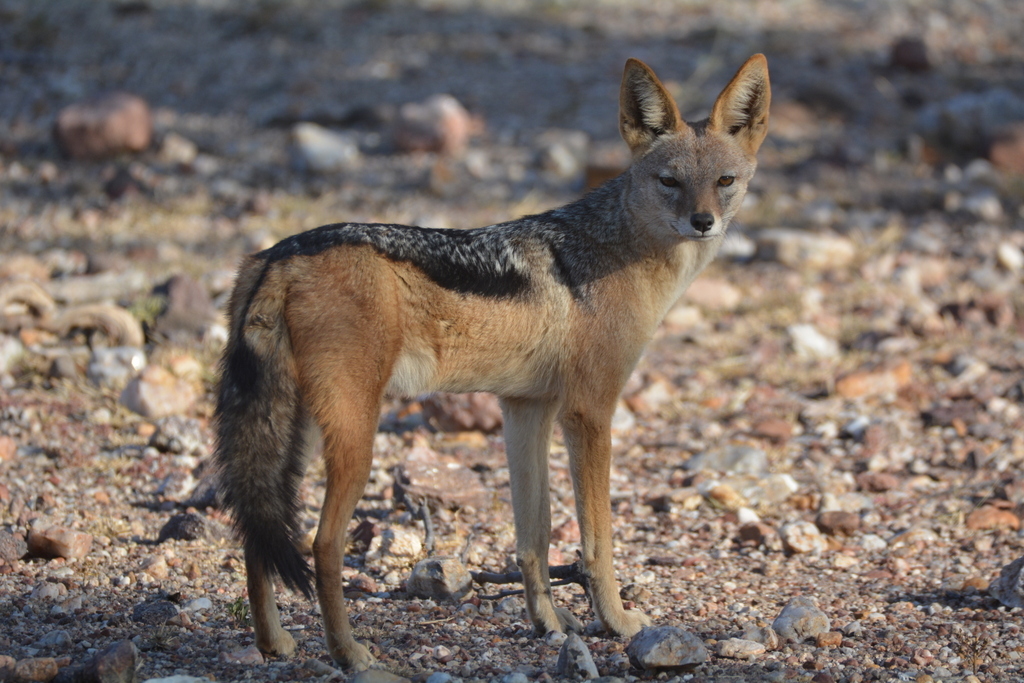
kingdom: Animalia
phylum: Chordata
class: Mammalia
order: Carnivora
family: Canidae
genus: Lupulella
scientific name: Lupulella
